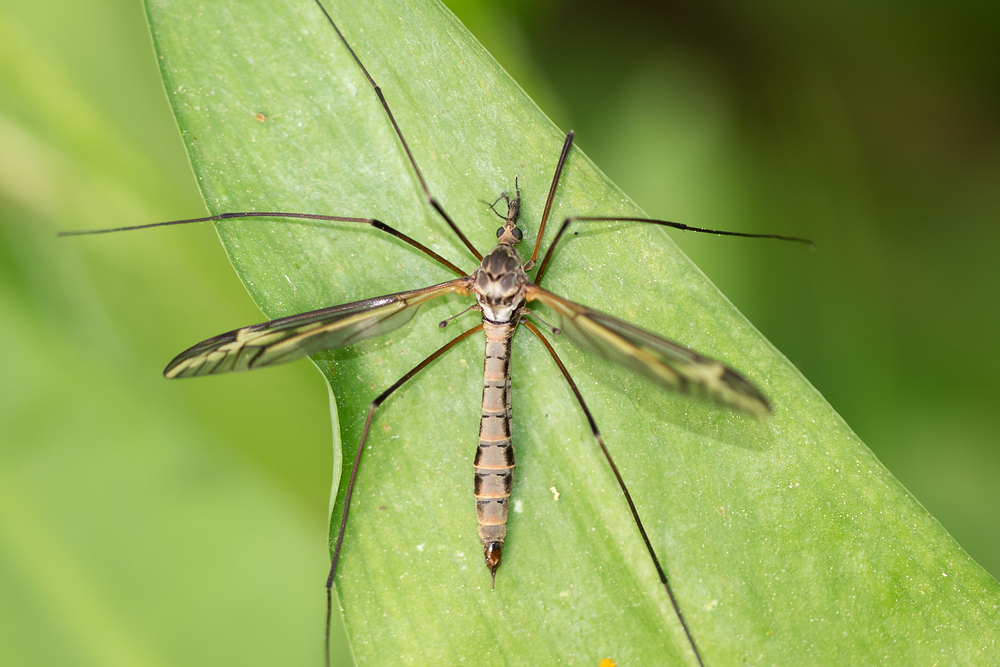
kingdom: Animalia
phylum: Arthropoda
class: Insecta
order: Diptera
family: Tipulidae
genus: Tipula
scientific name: Tipula vittata
